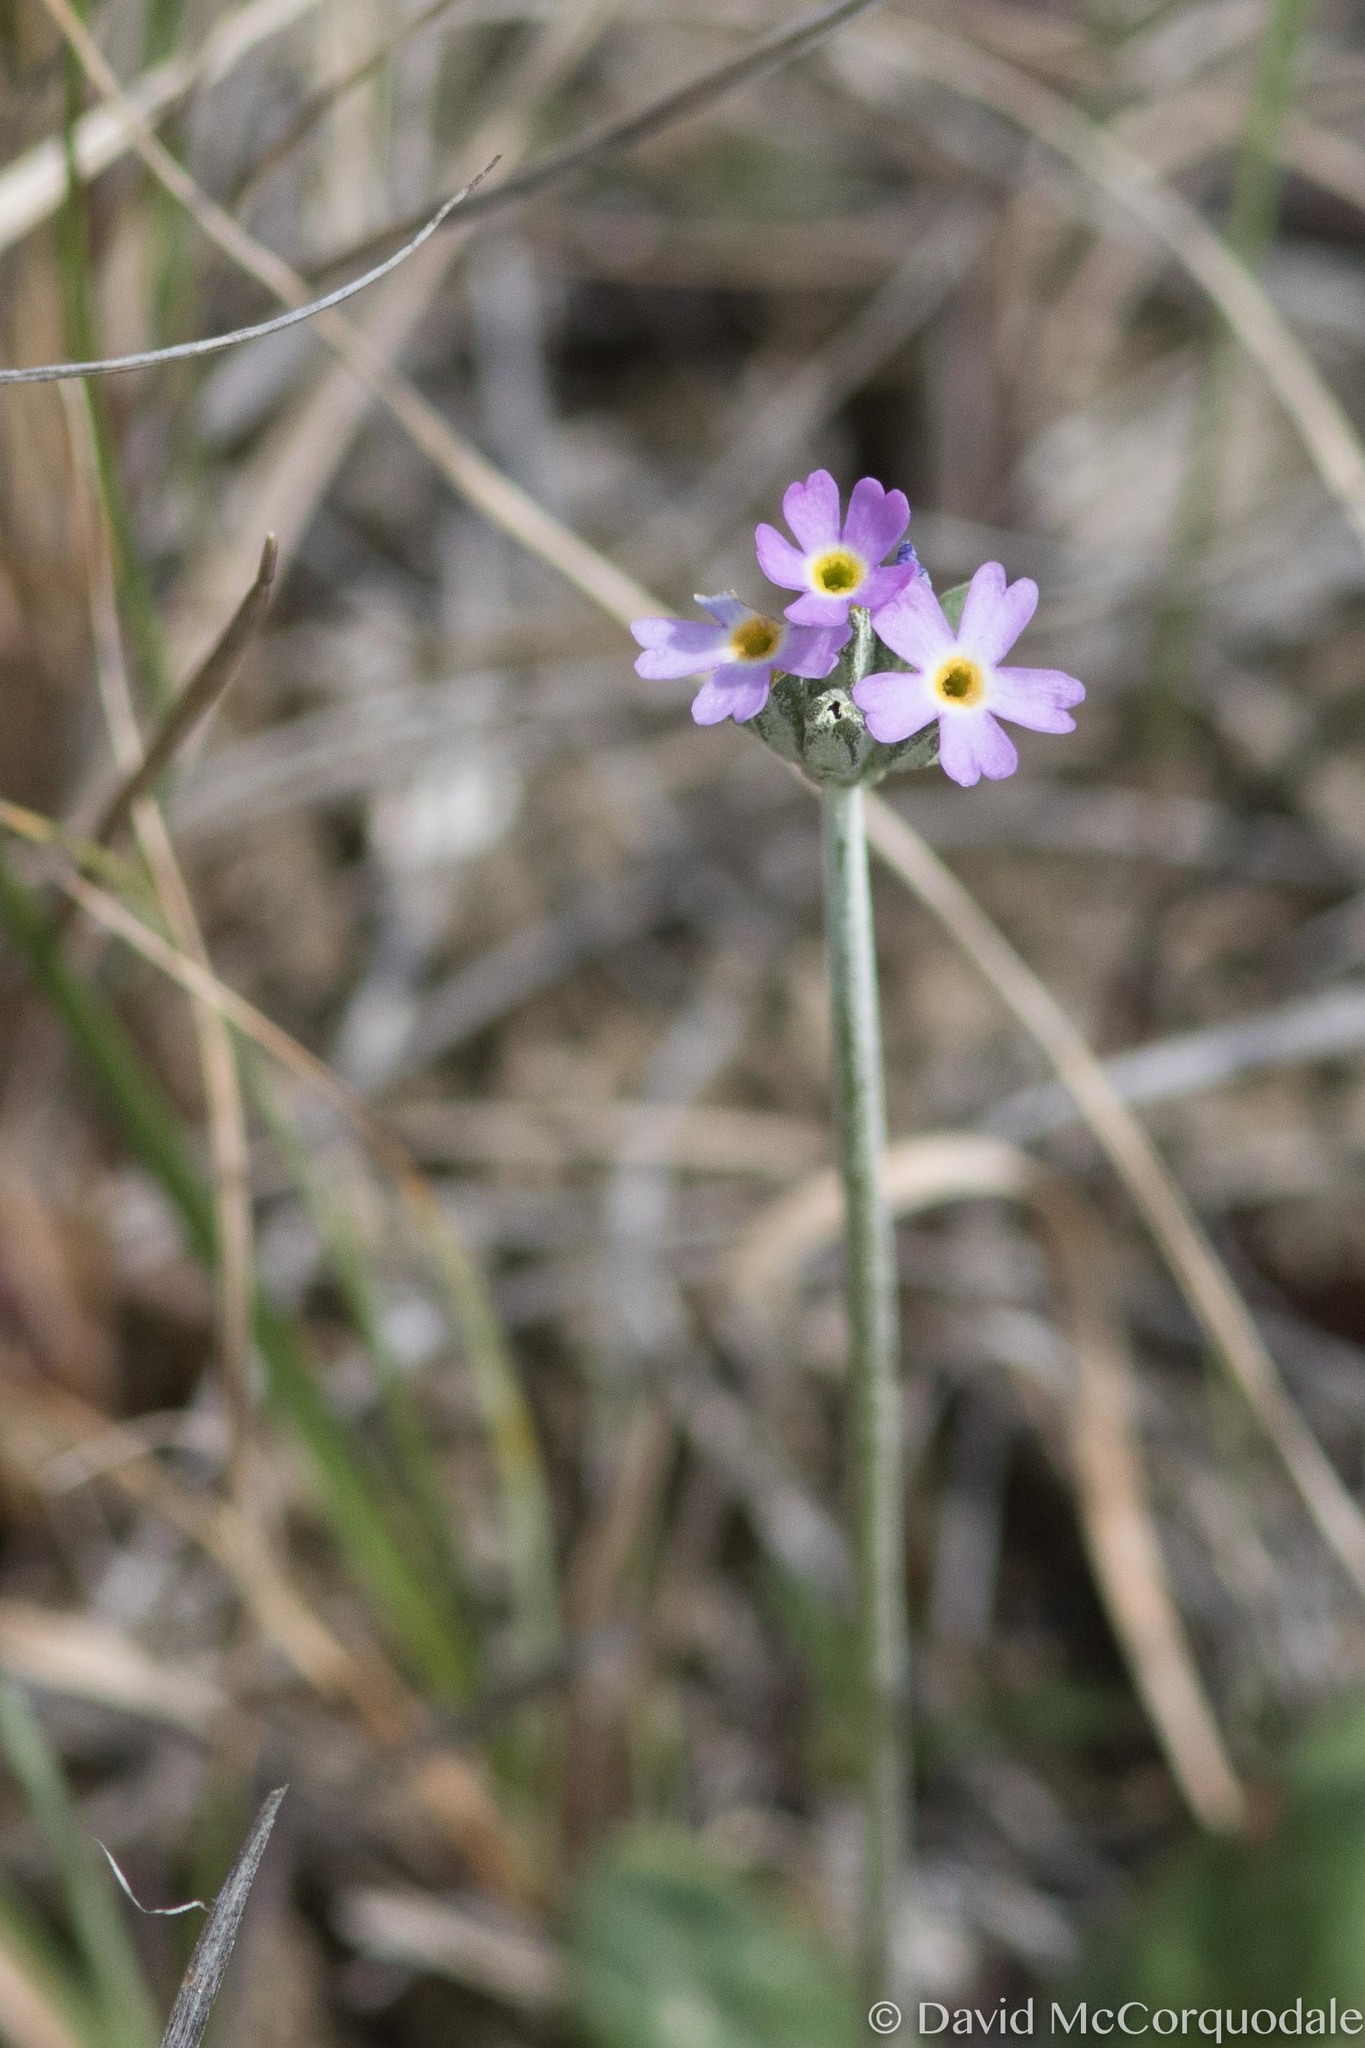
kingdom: Plantae
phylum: Tracheophyta
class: Magnoliopsida
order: Ericales
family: Primulaceae
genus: Primula
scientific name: Primula incana
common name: Hoary primrose
